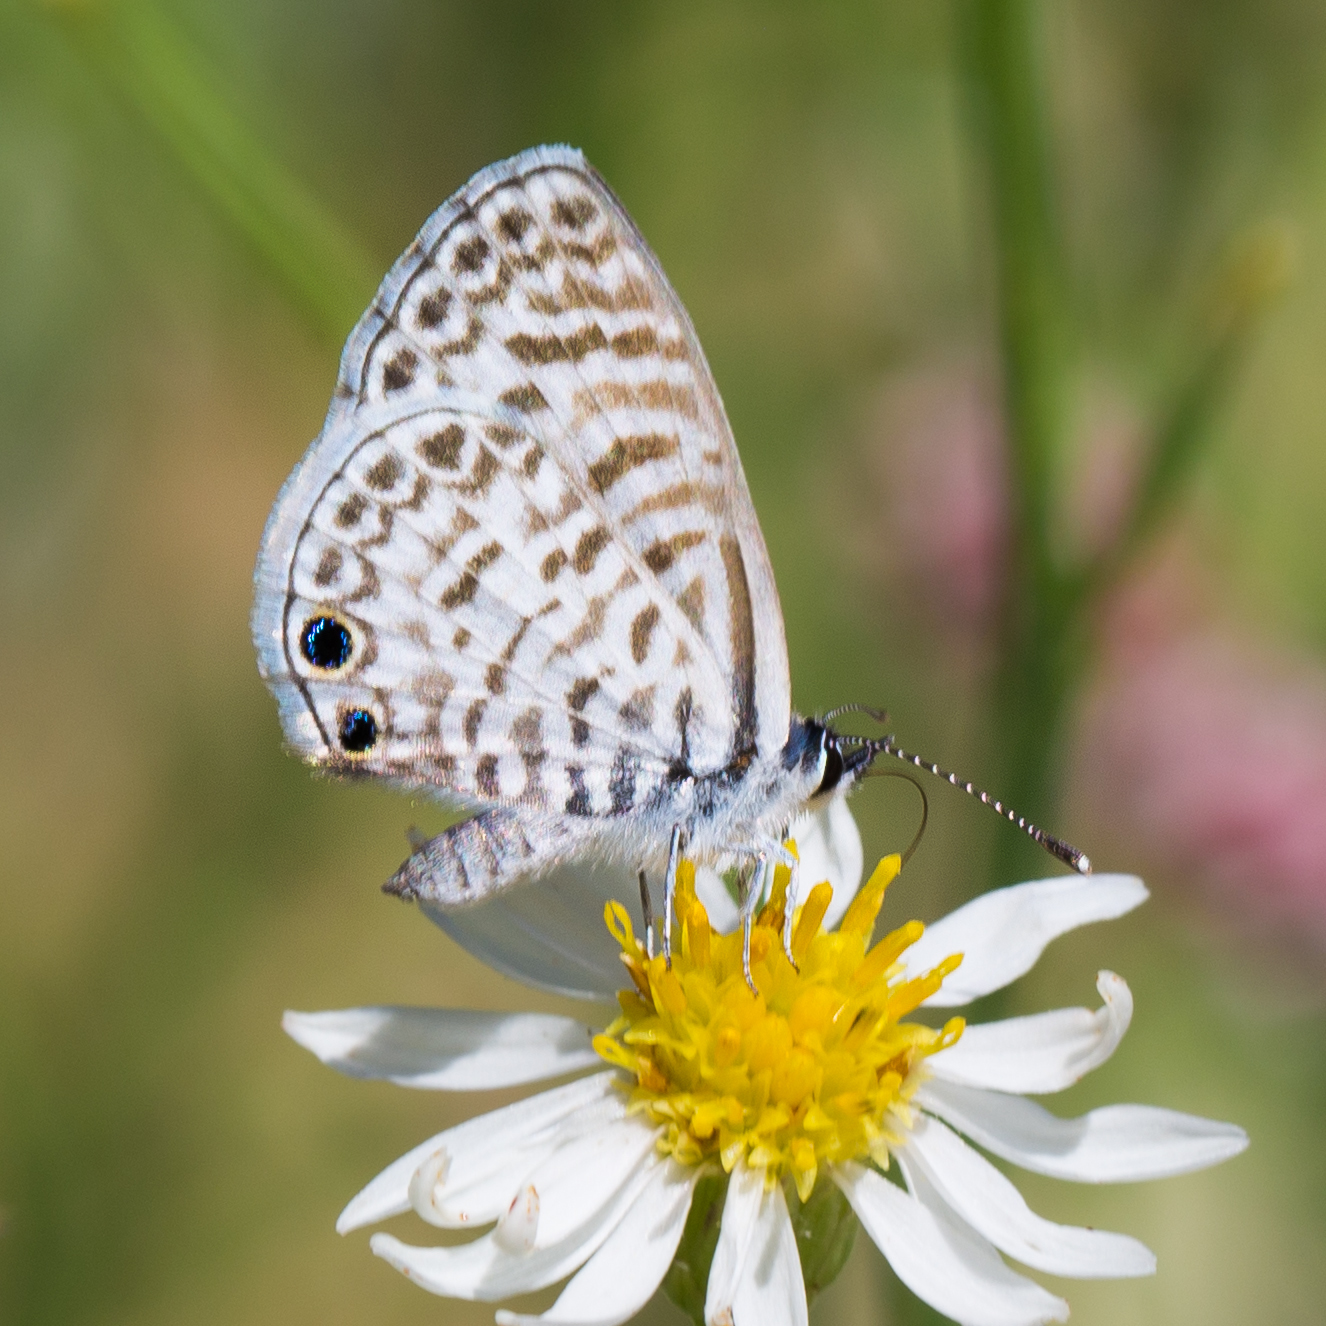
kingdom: Animalia
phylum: Arthropoda
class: Insecta
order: Lepidoptera
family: Lycaenidae
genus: Leptotes
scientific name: Leptotes cassius
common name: Cassius blue
